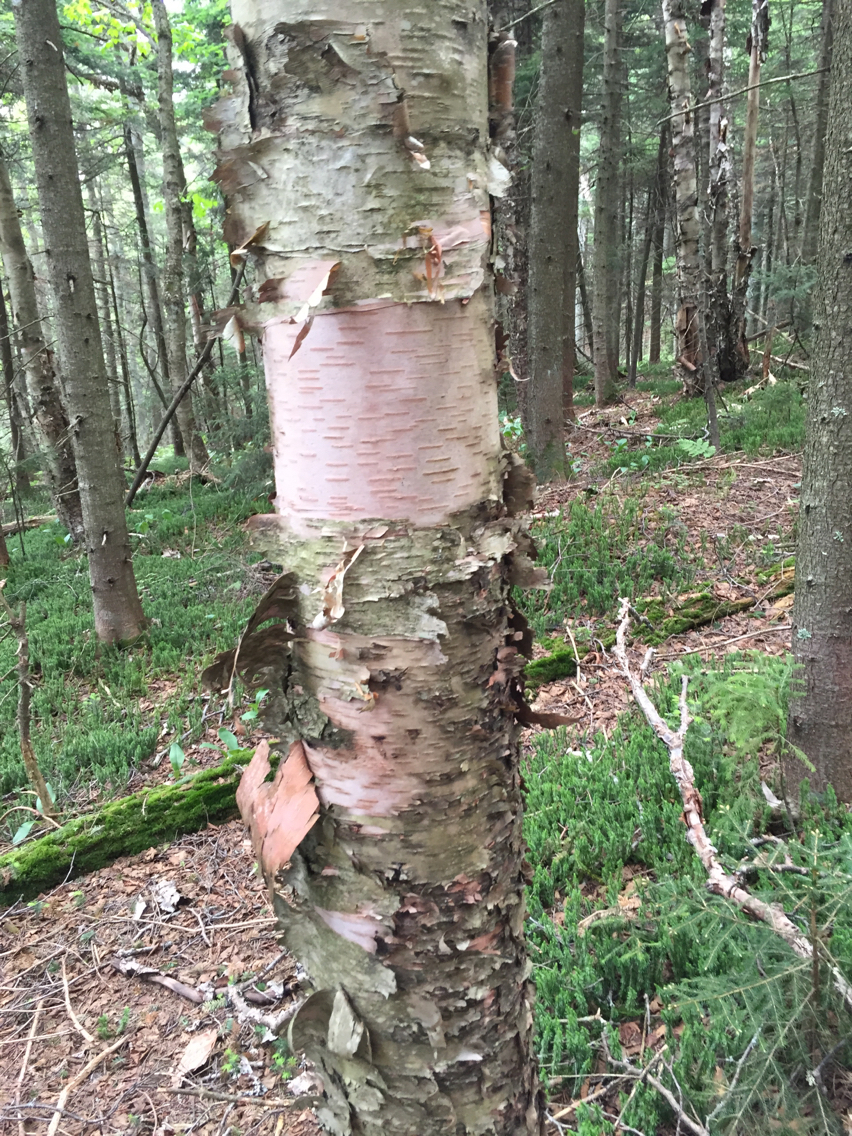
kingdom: Plantae
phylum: Tracheophyta
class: Magnoliopsida
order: Fagales
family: Betulaceae
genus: Betula
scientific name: Betula cordifolia
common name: Mountain white birch
